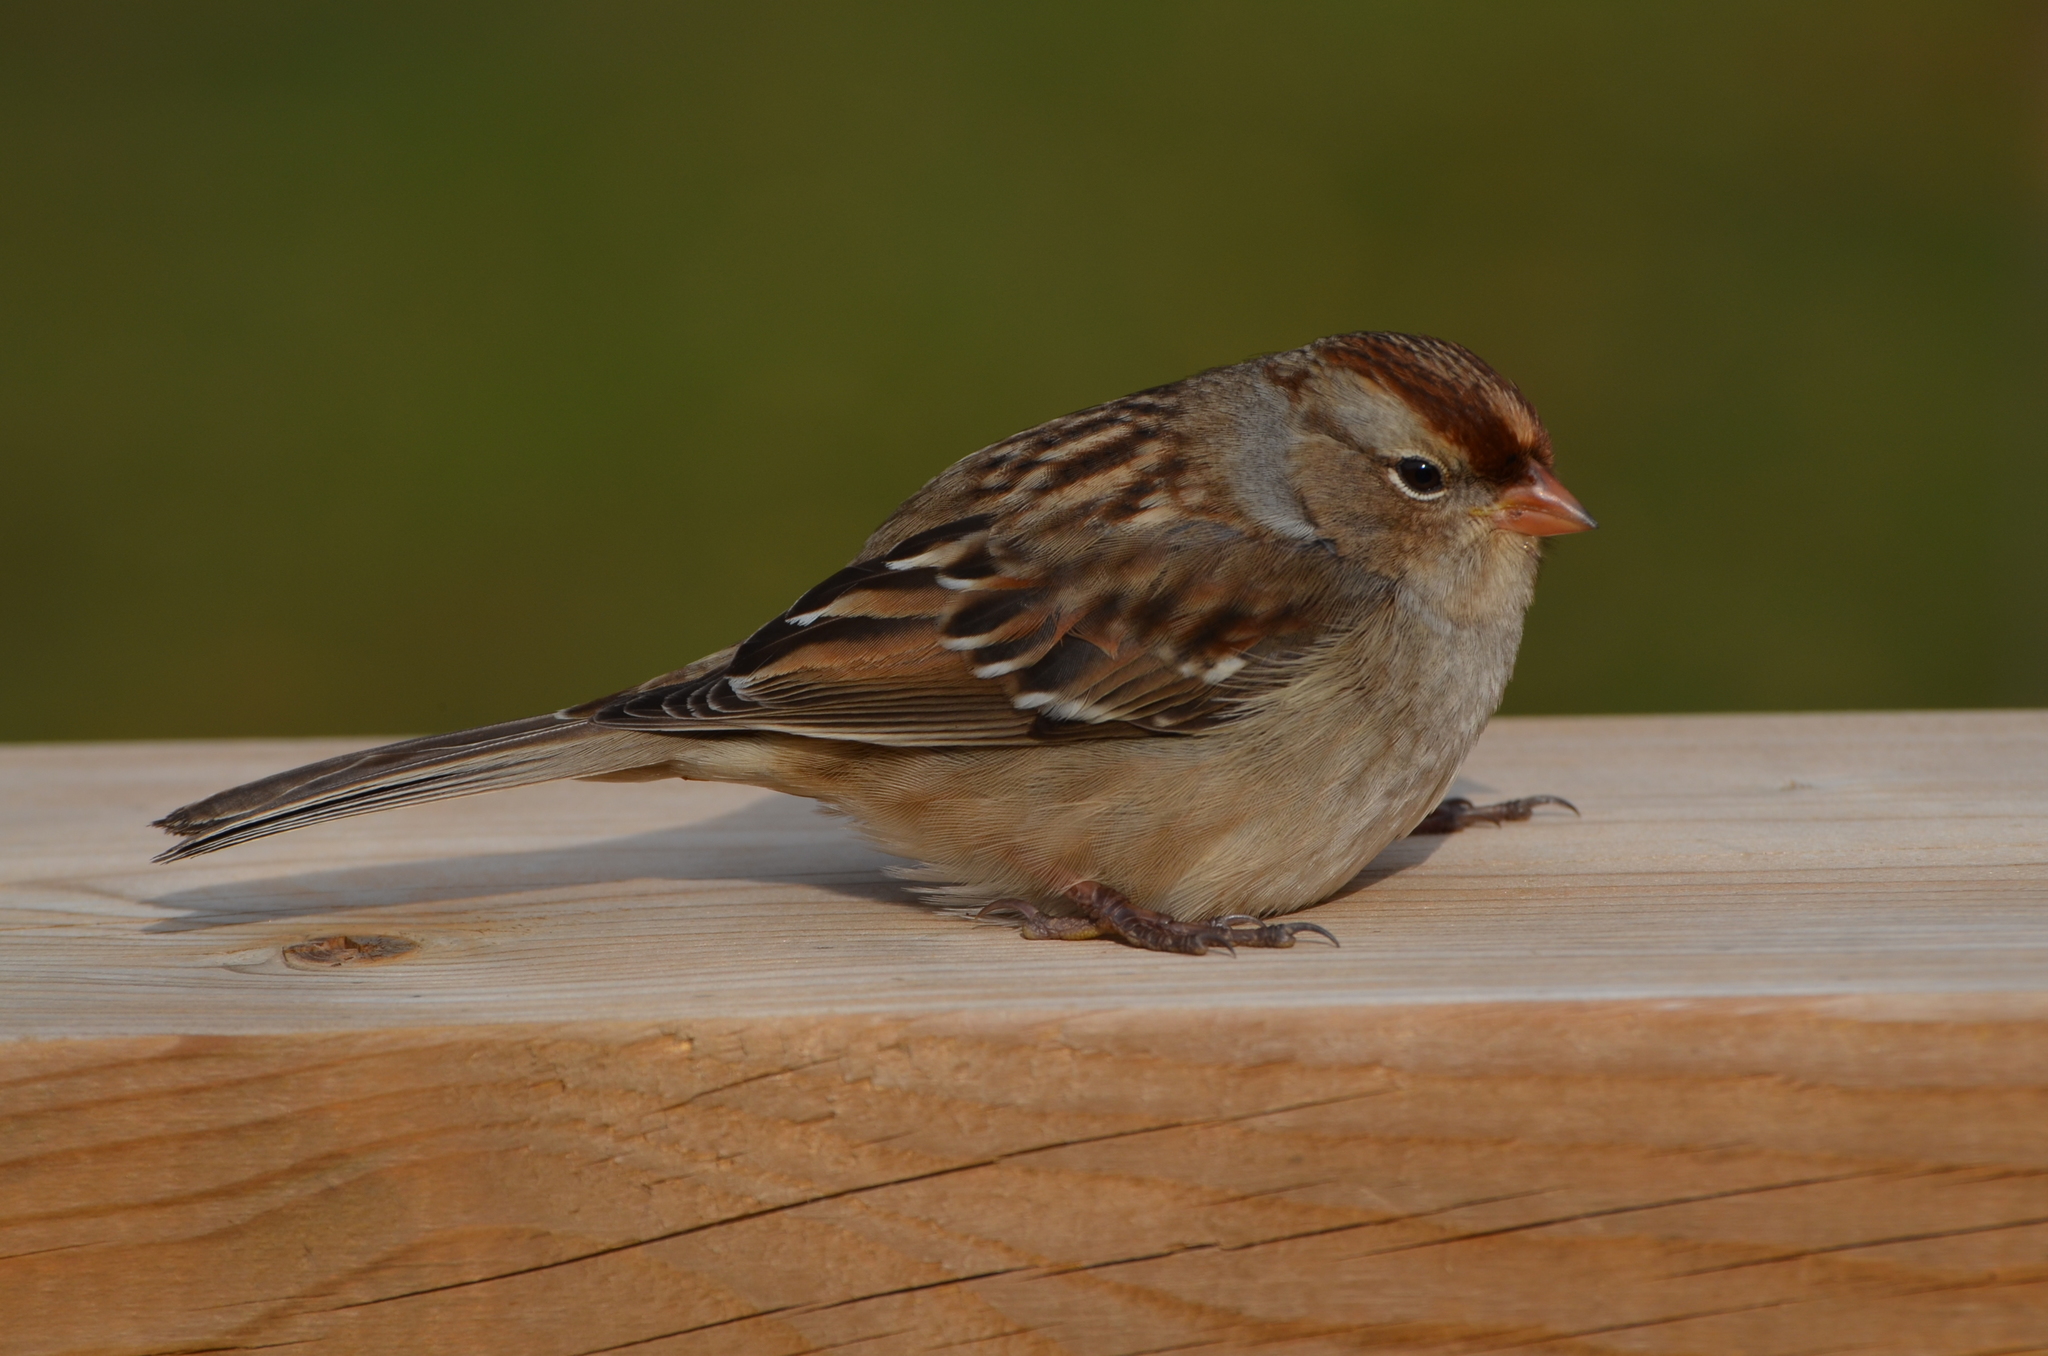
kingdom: Animalia
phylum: Chordata
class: Aves
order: Passeriformes
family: Passerellidae
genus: Zonotrichia
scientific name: Zonotrichia leucophrys
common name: White-crowned sparrow
